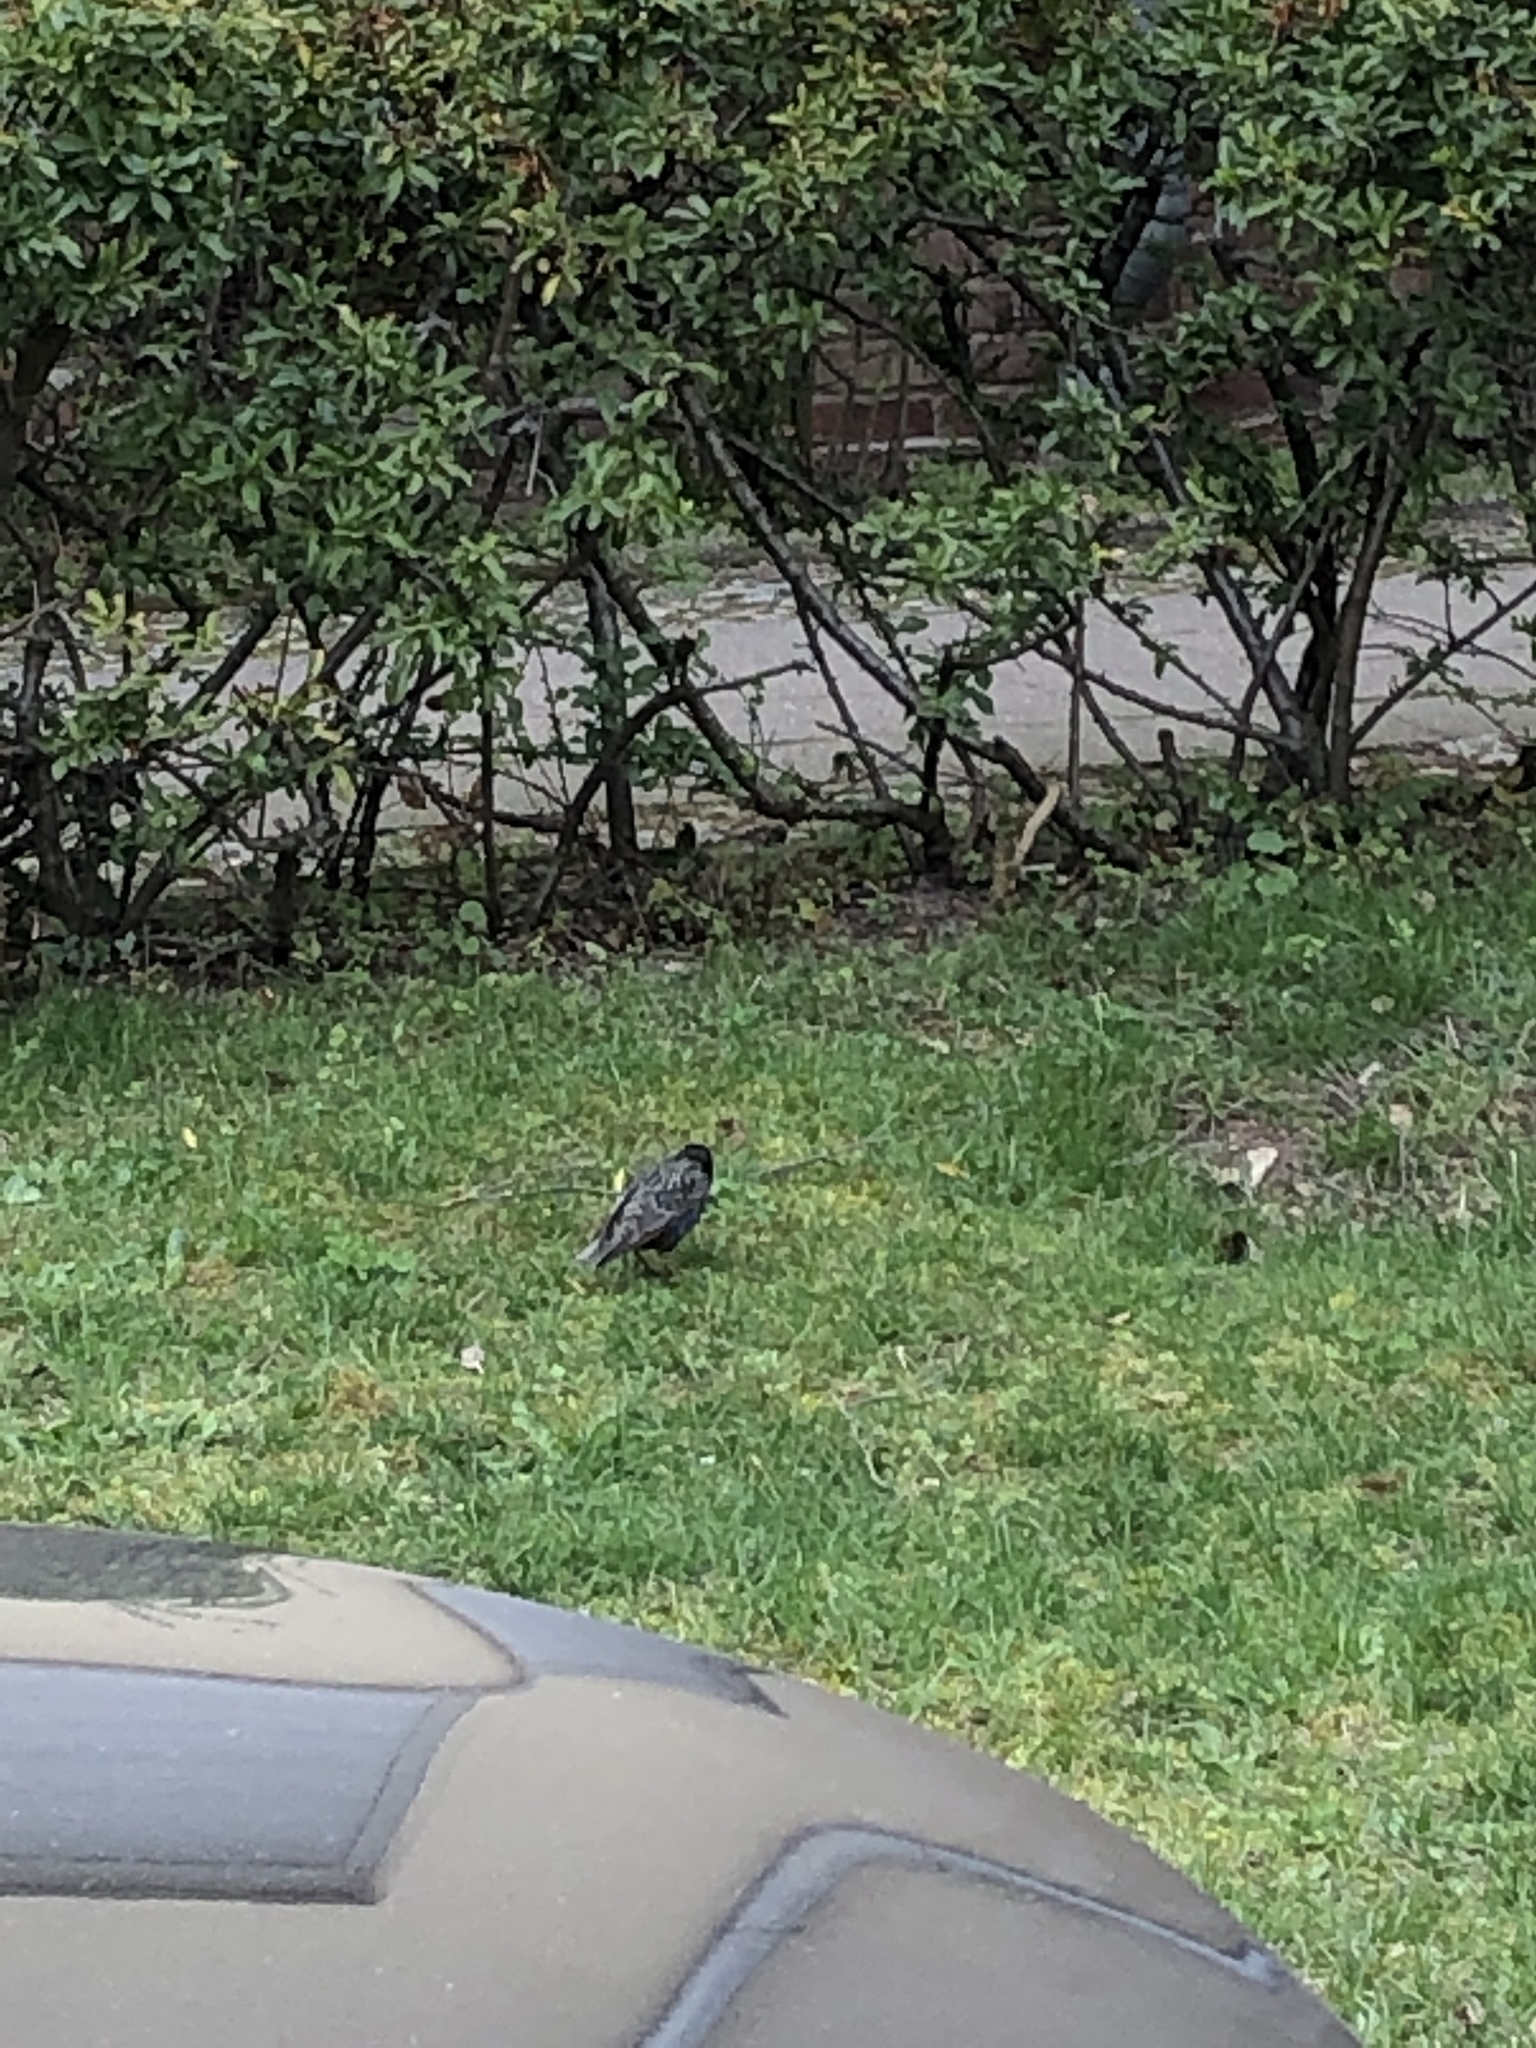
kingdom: Animalia
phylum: Chordata
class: Aves
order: Passeriformes
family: Sturnidae
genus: Sturnus
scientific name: Sturnus vulgaris
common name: Common starling
